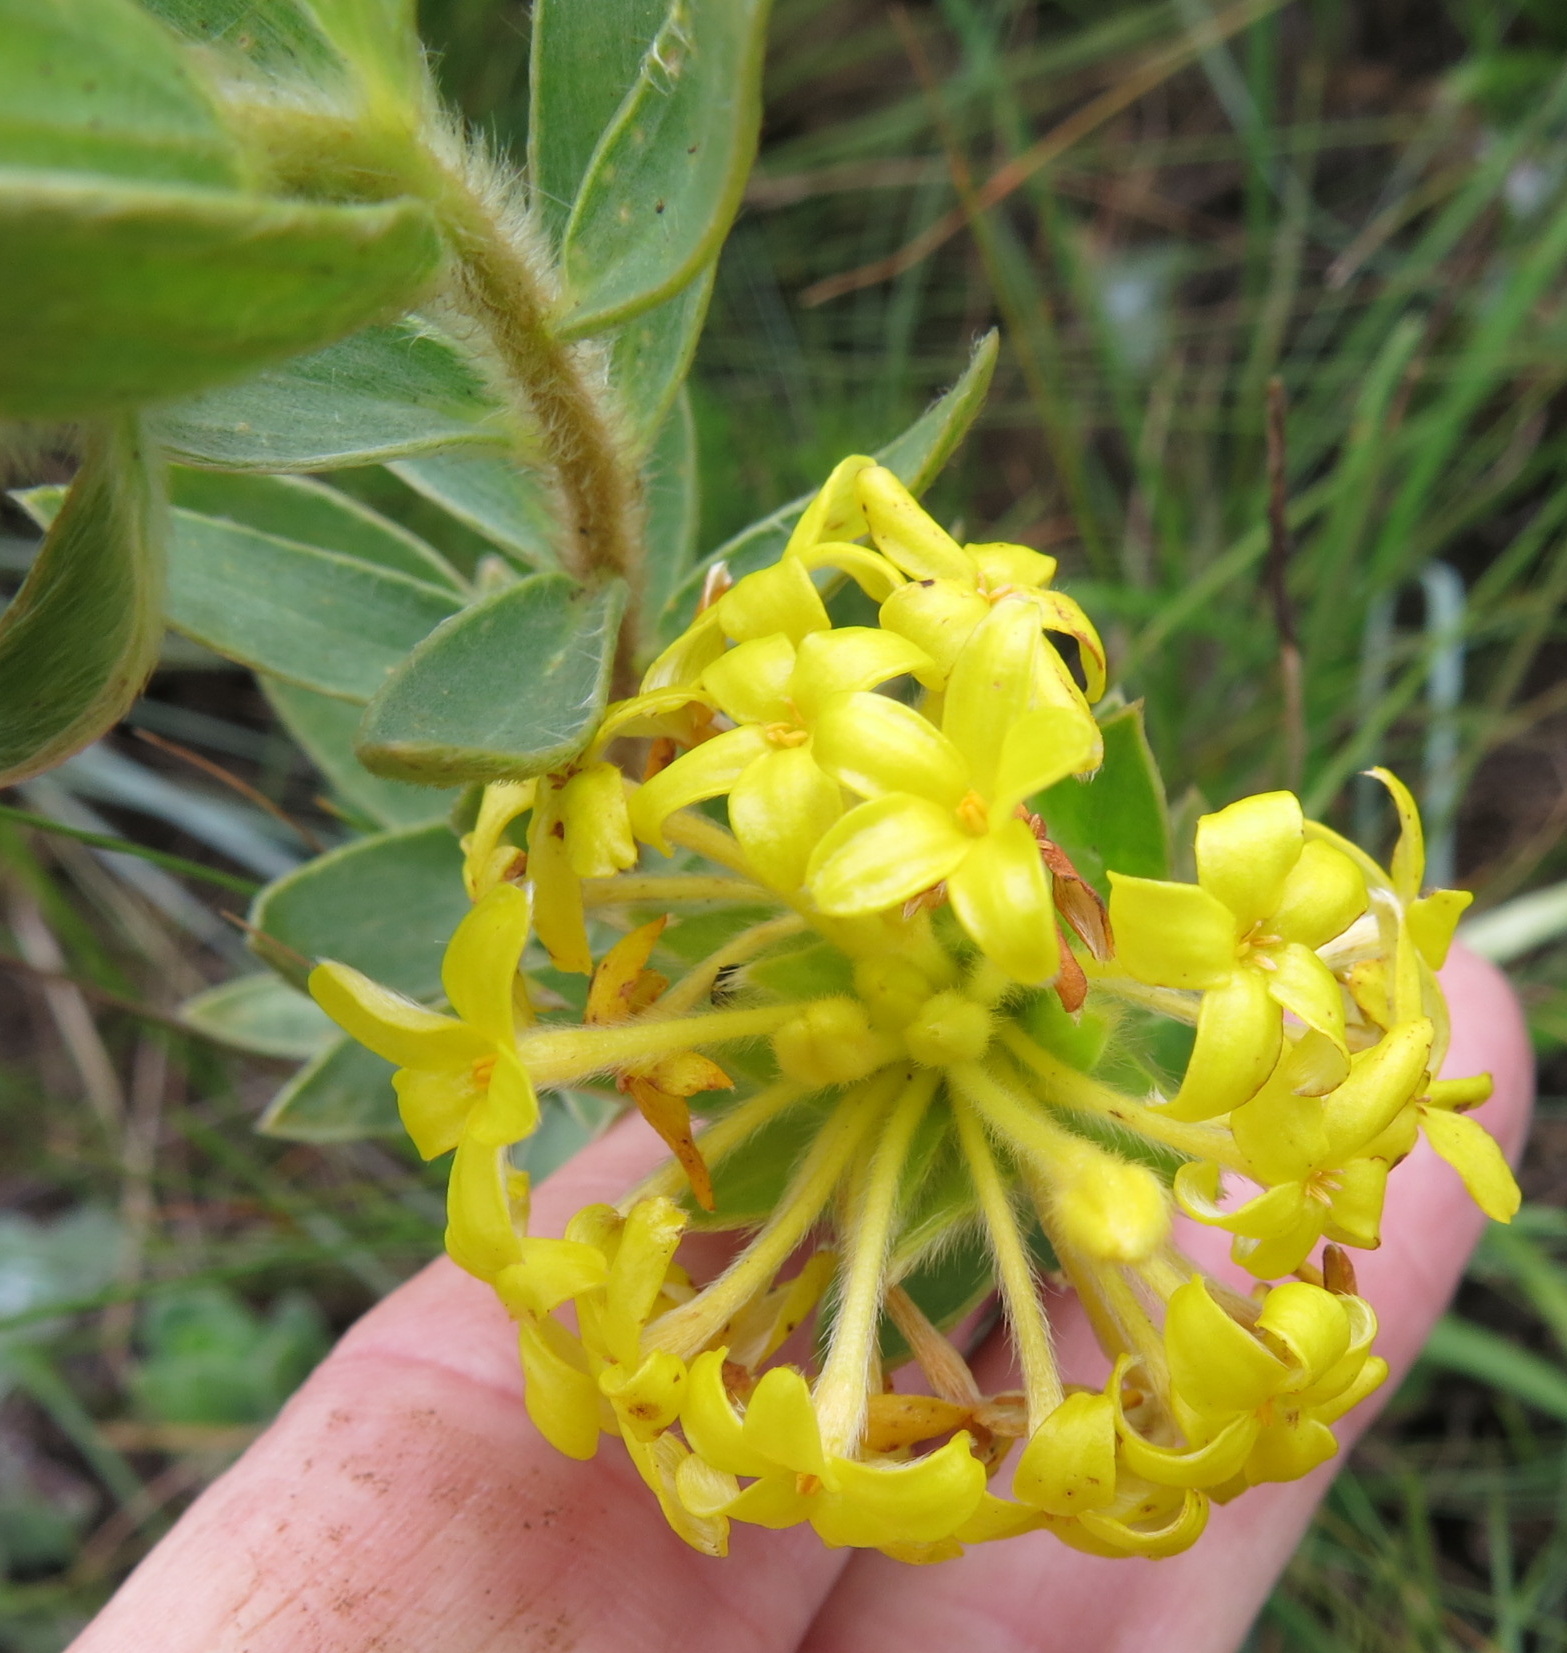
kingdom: Plantae
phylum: Tracheophyta
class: Magnoliopsida
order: Malvales
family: Thymelaeaceae
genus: Gnidia
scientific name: Gnidia anthylloides
